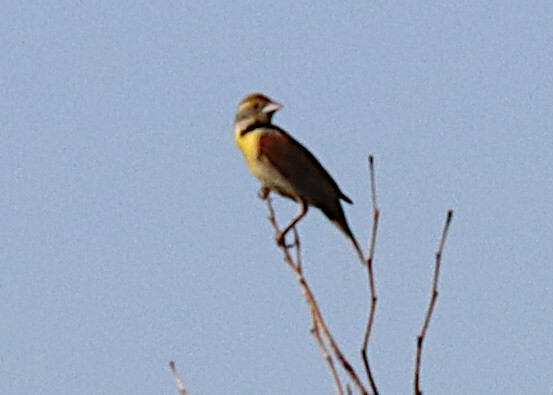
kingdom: Animalia
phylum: Chordata
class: Aves
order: Passeriformes
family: Cardinalidae
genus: Spiza
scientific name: Spiza americana
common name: Dickcissel
